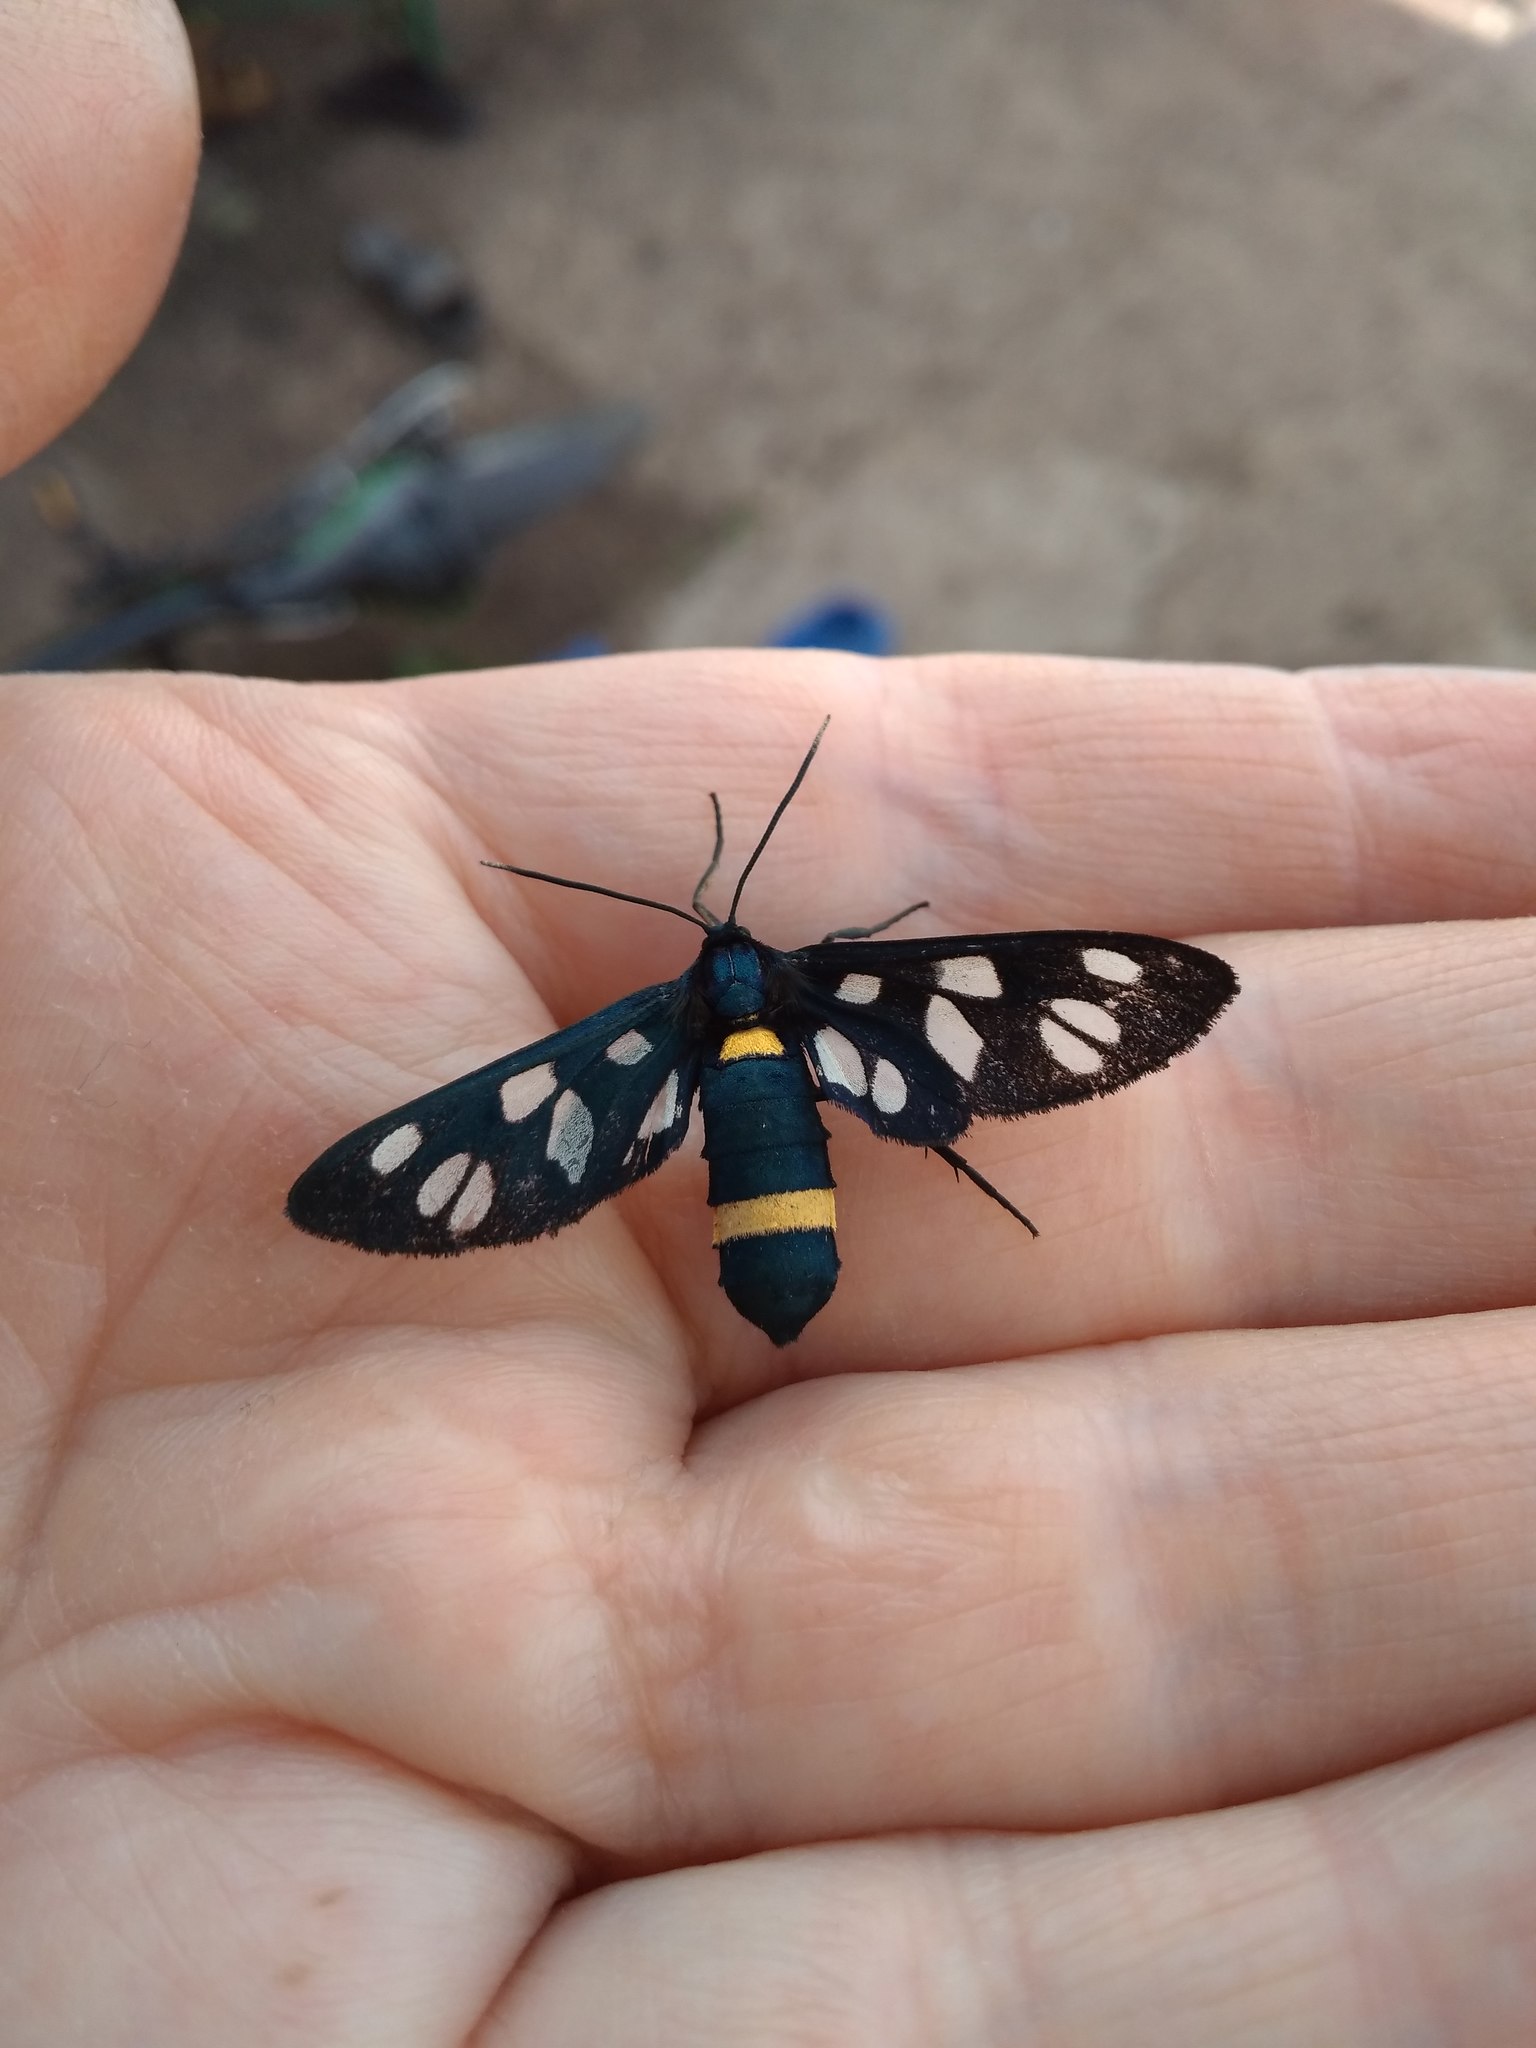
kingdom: Animalia
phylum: Arthropoda
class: Insecta
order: Lepidoptera
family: Erebidae
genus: Amata
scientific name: Amata nigricornis
